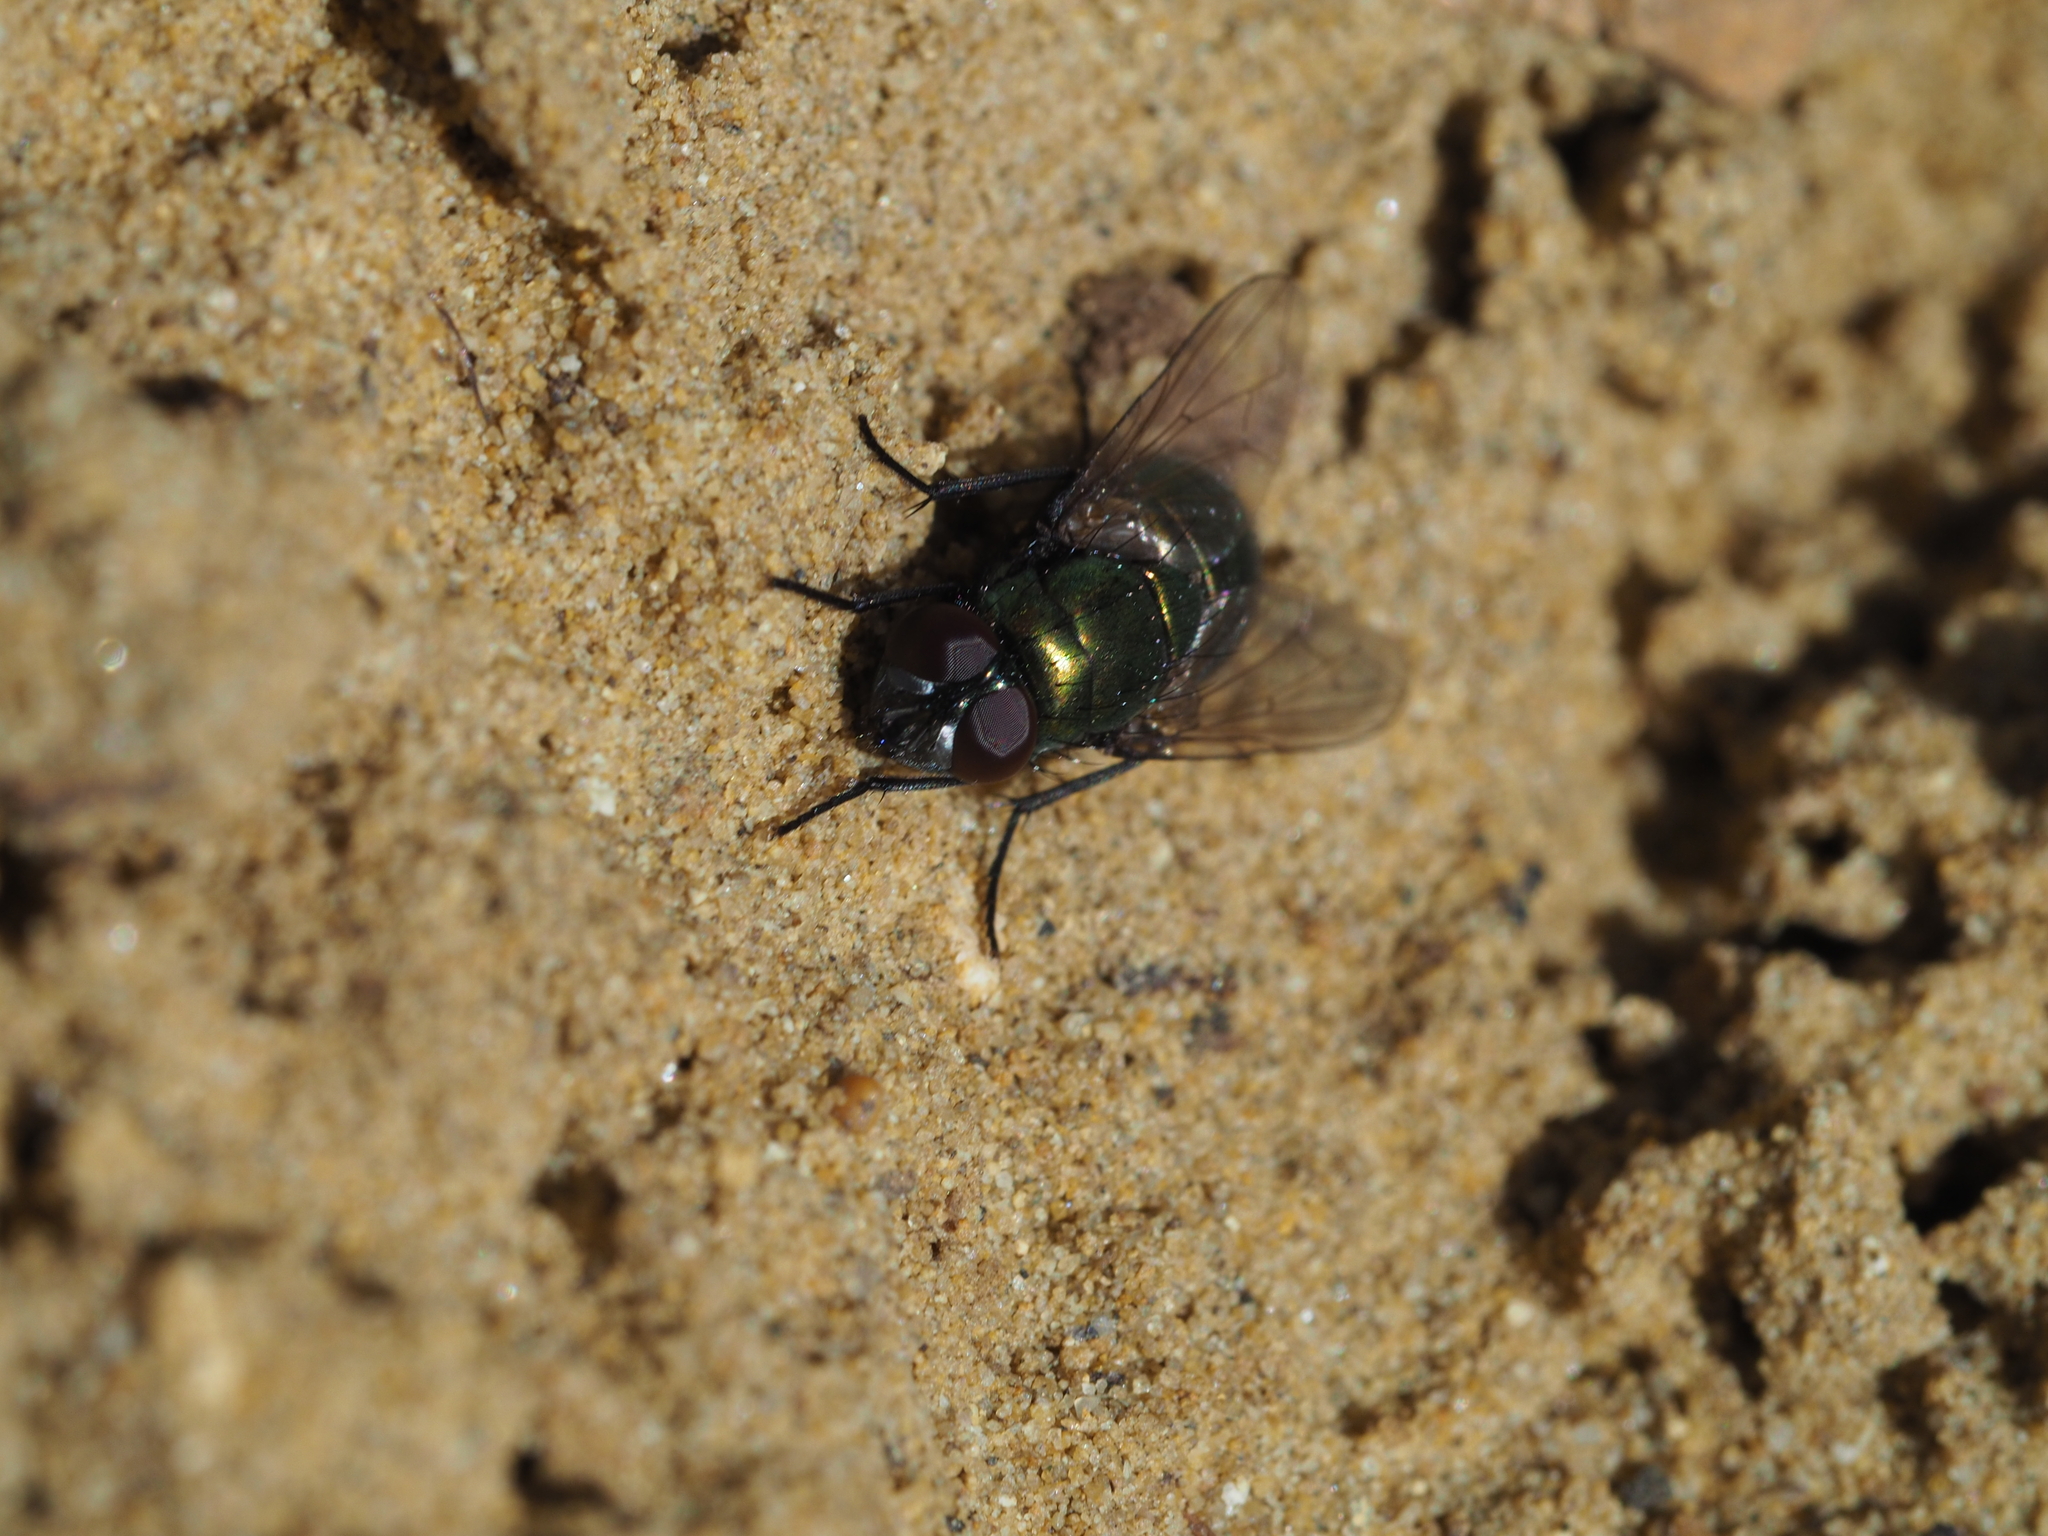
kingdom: Animalia
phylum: Arthropoda
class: Insecta
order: Diptera
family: Muscidae
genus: Neomyia
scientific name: Neomyia cornicina
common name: House fly
